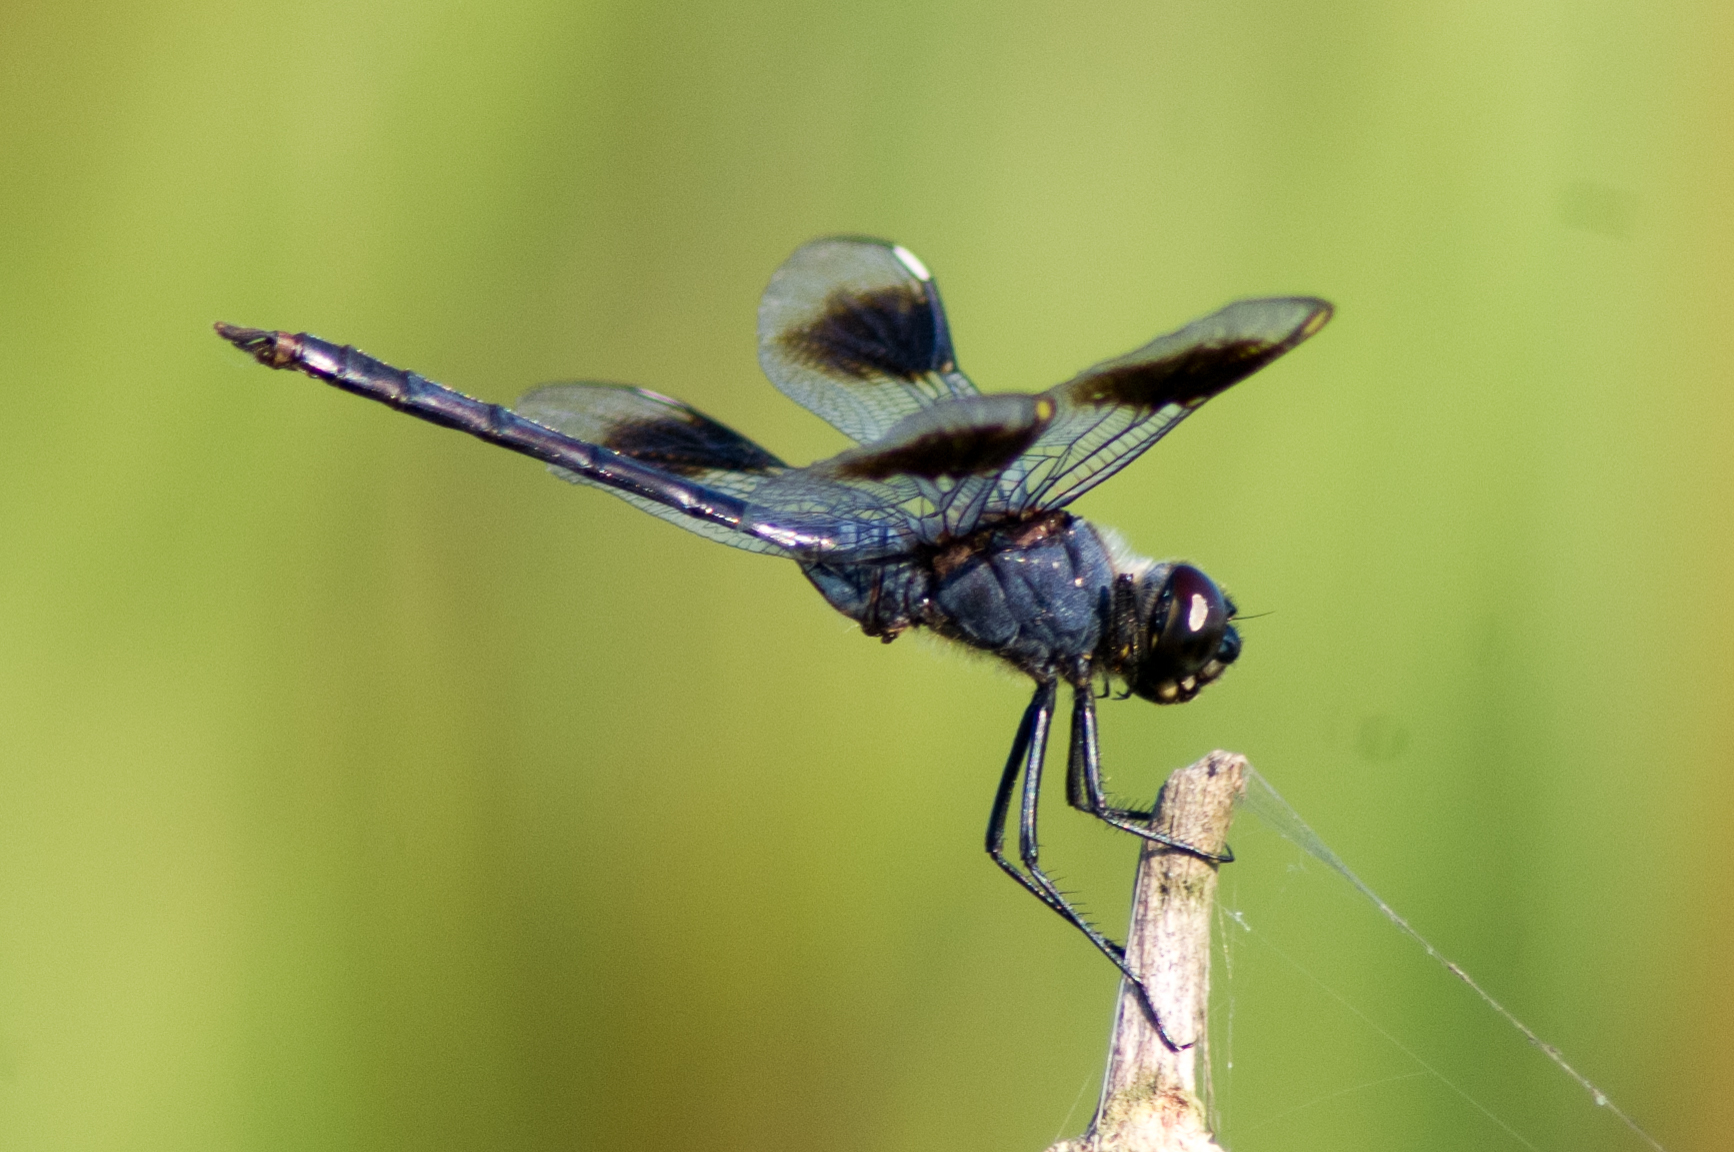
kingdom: Animalia
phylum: Arthropoda
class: Insecta
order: Odonata
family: Libellulidae
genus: Brachymesia
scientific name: Brachymesia gravida
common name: Four-spotted pennant
